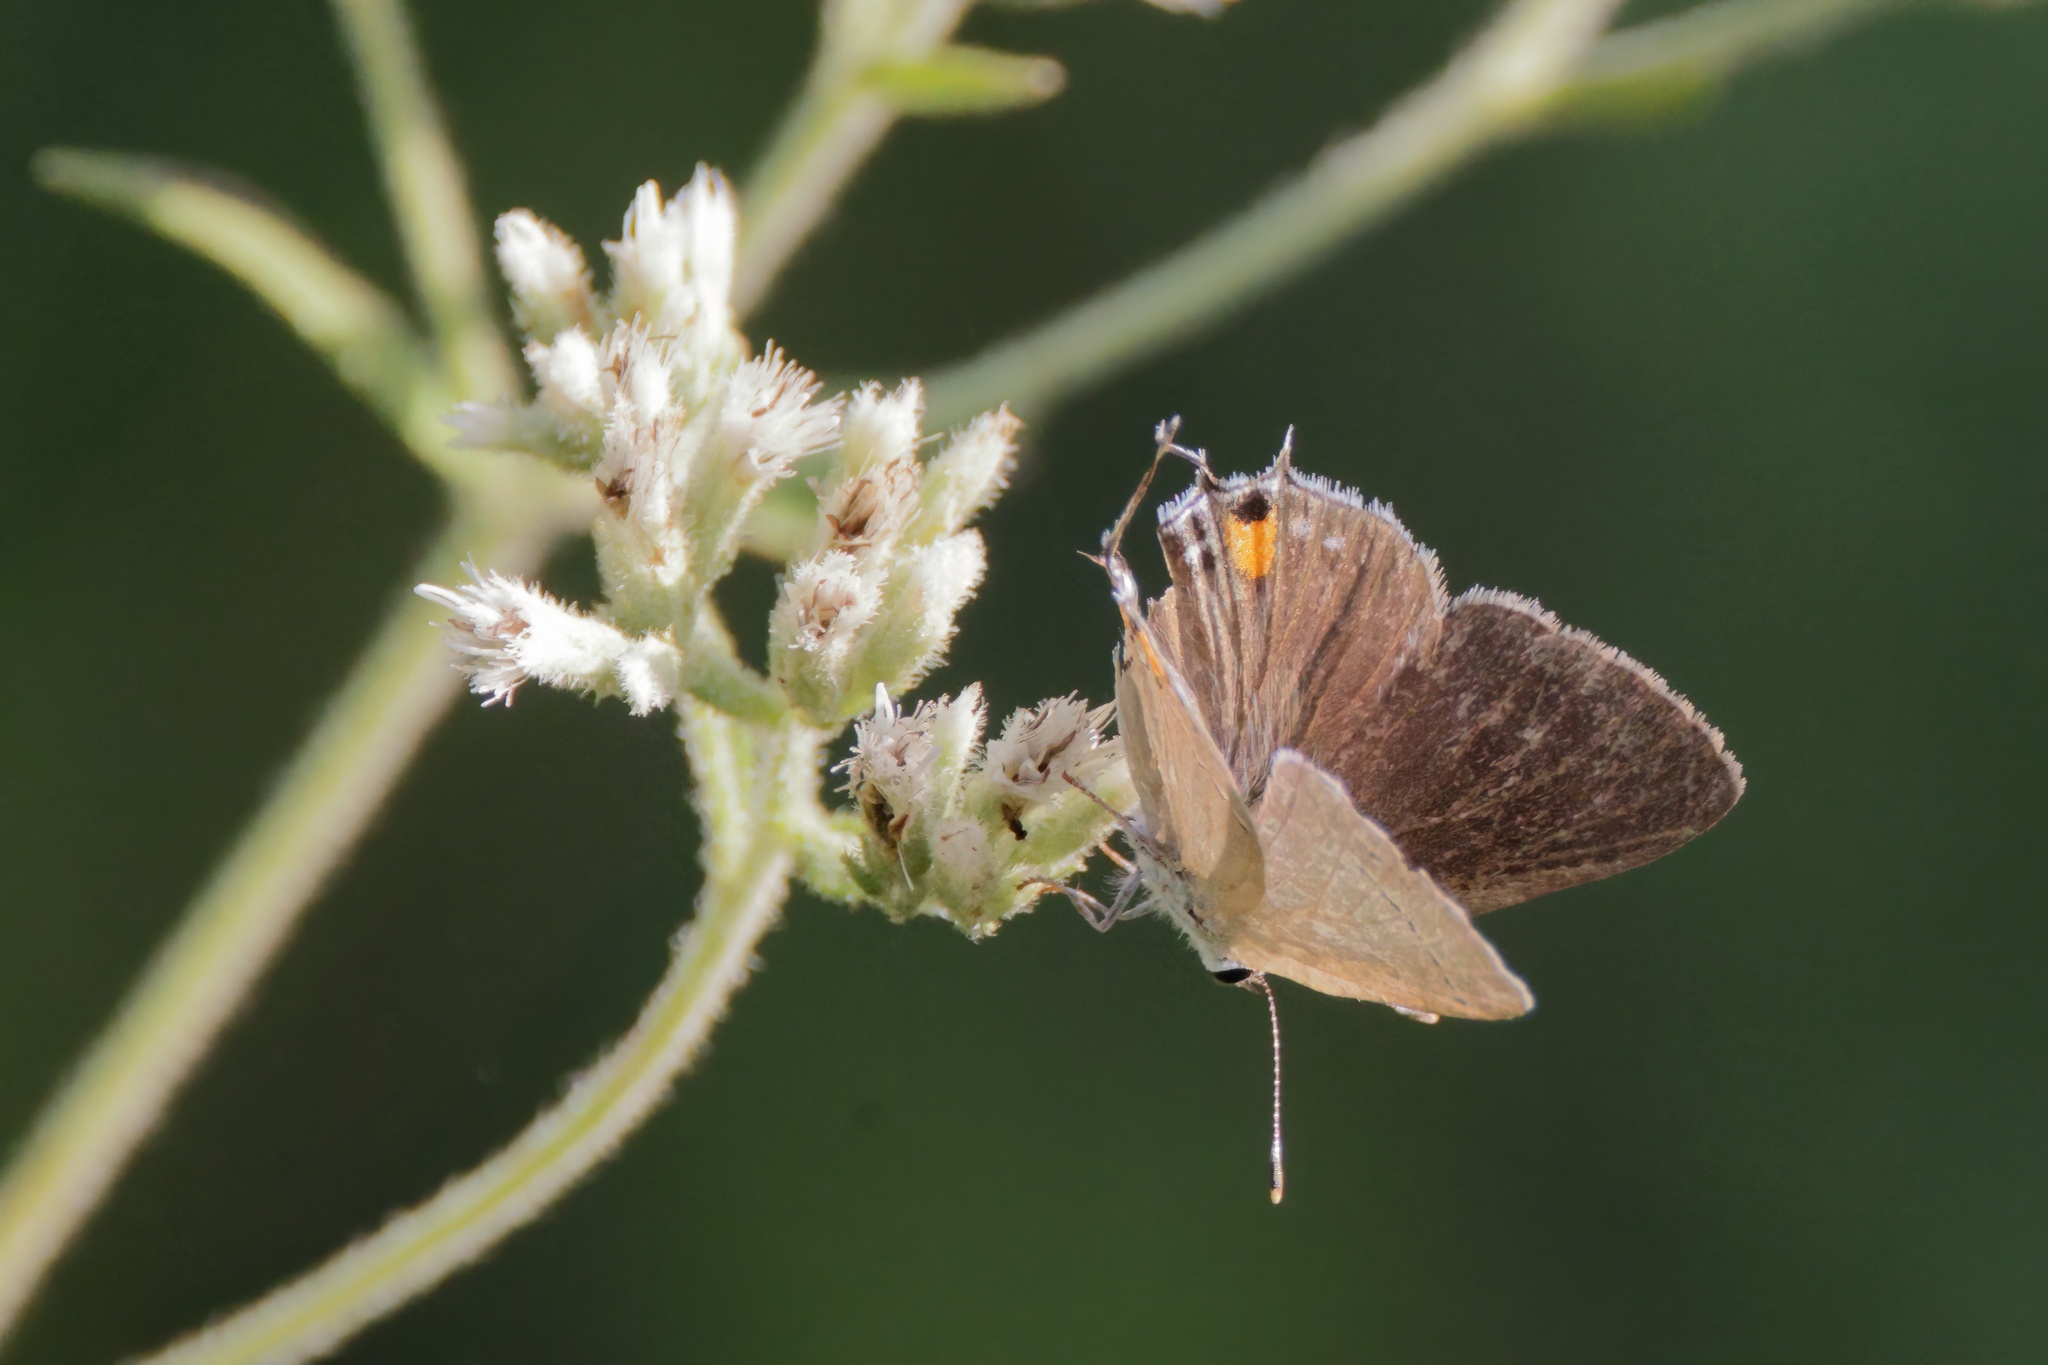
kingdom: Animalia
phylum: Arthropoda
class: Insecta
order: Lepidoptera
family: Lycaenidae
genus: Strymon
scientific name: Strymon melinus
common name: Gray hairstreak
